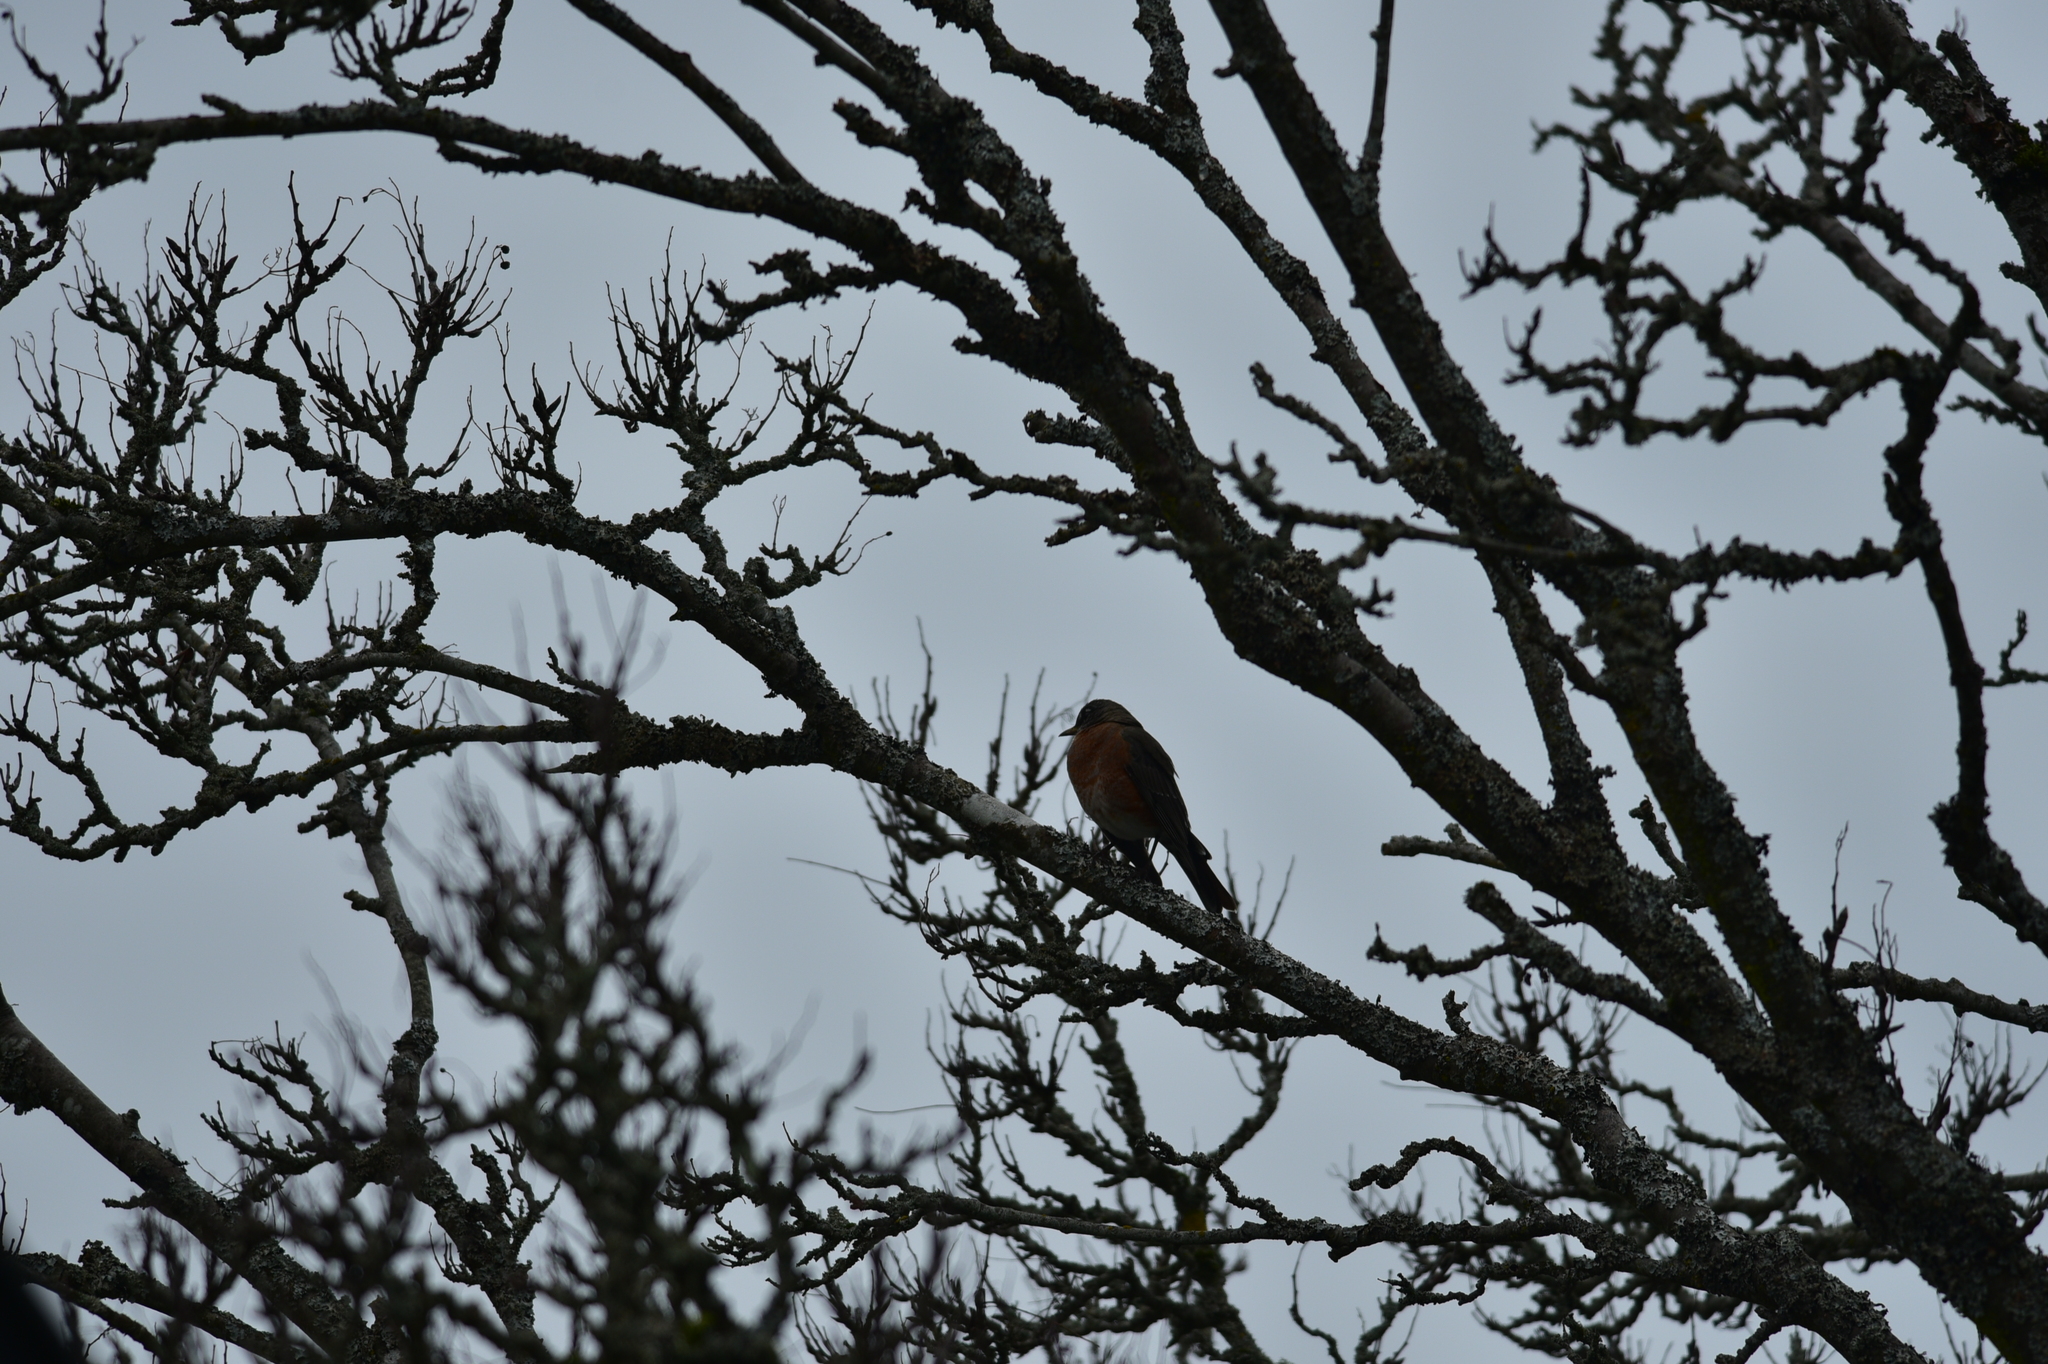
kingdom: Animalia
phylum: Chordata
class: Aves
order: Passeriformes
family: Turdidae
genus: Turdus
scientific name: Turdus migratorius
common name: American robin
